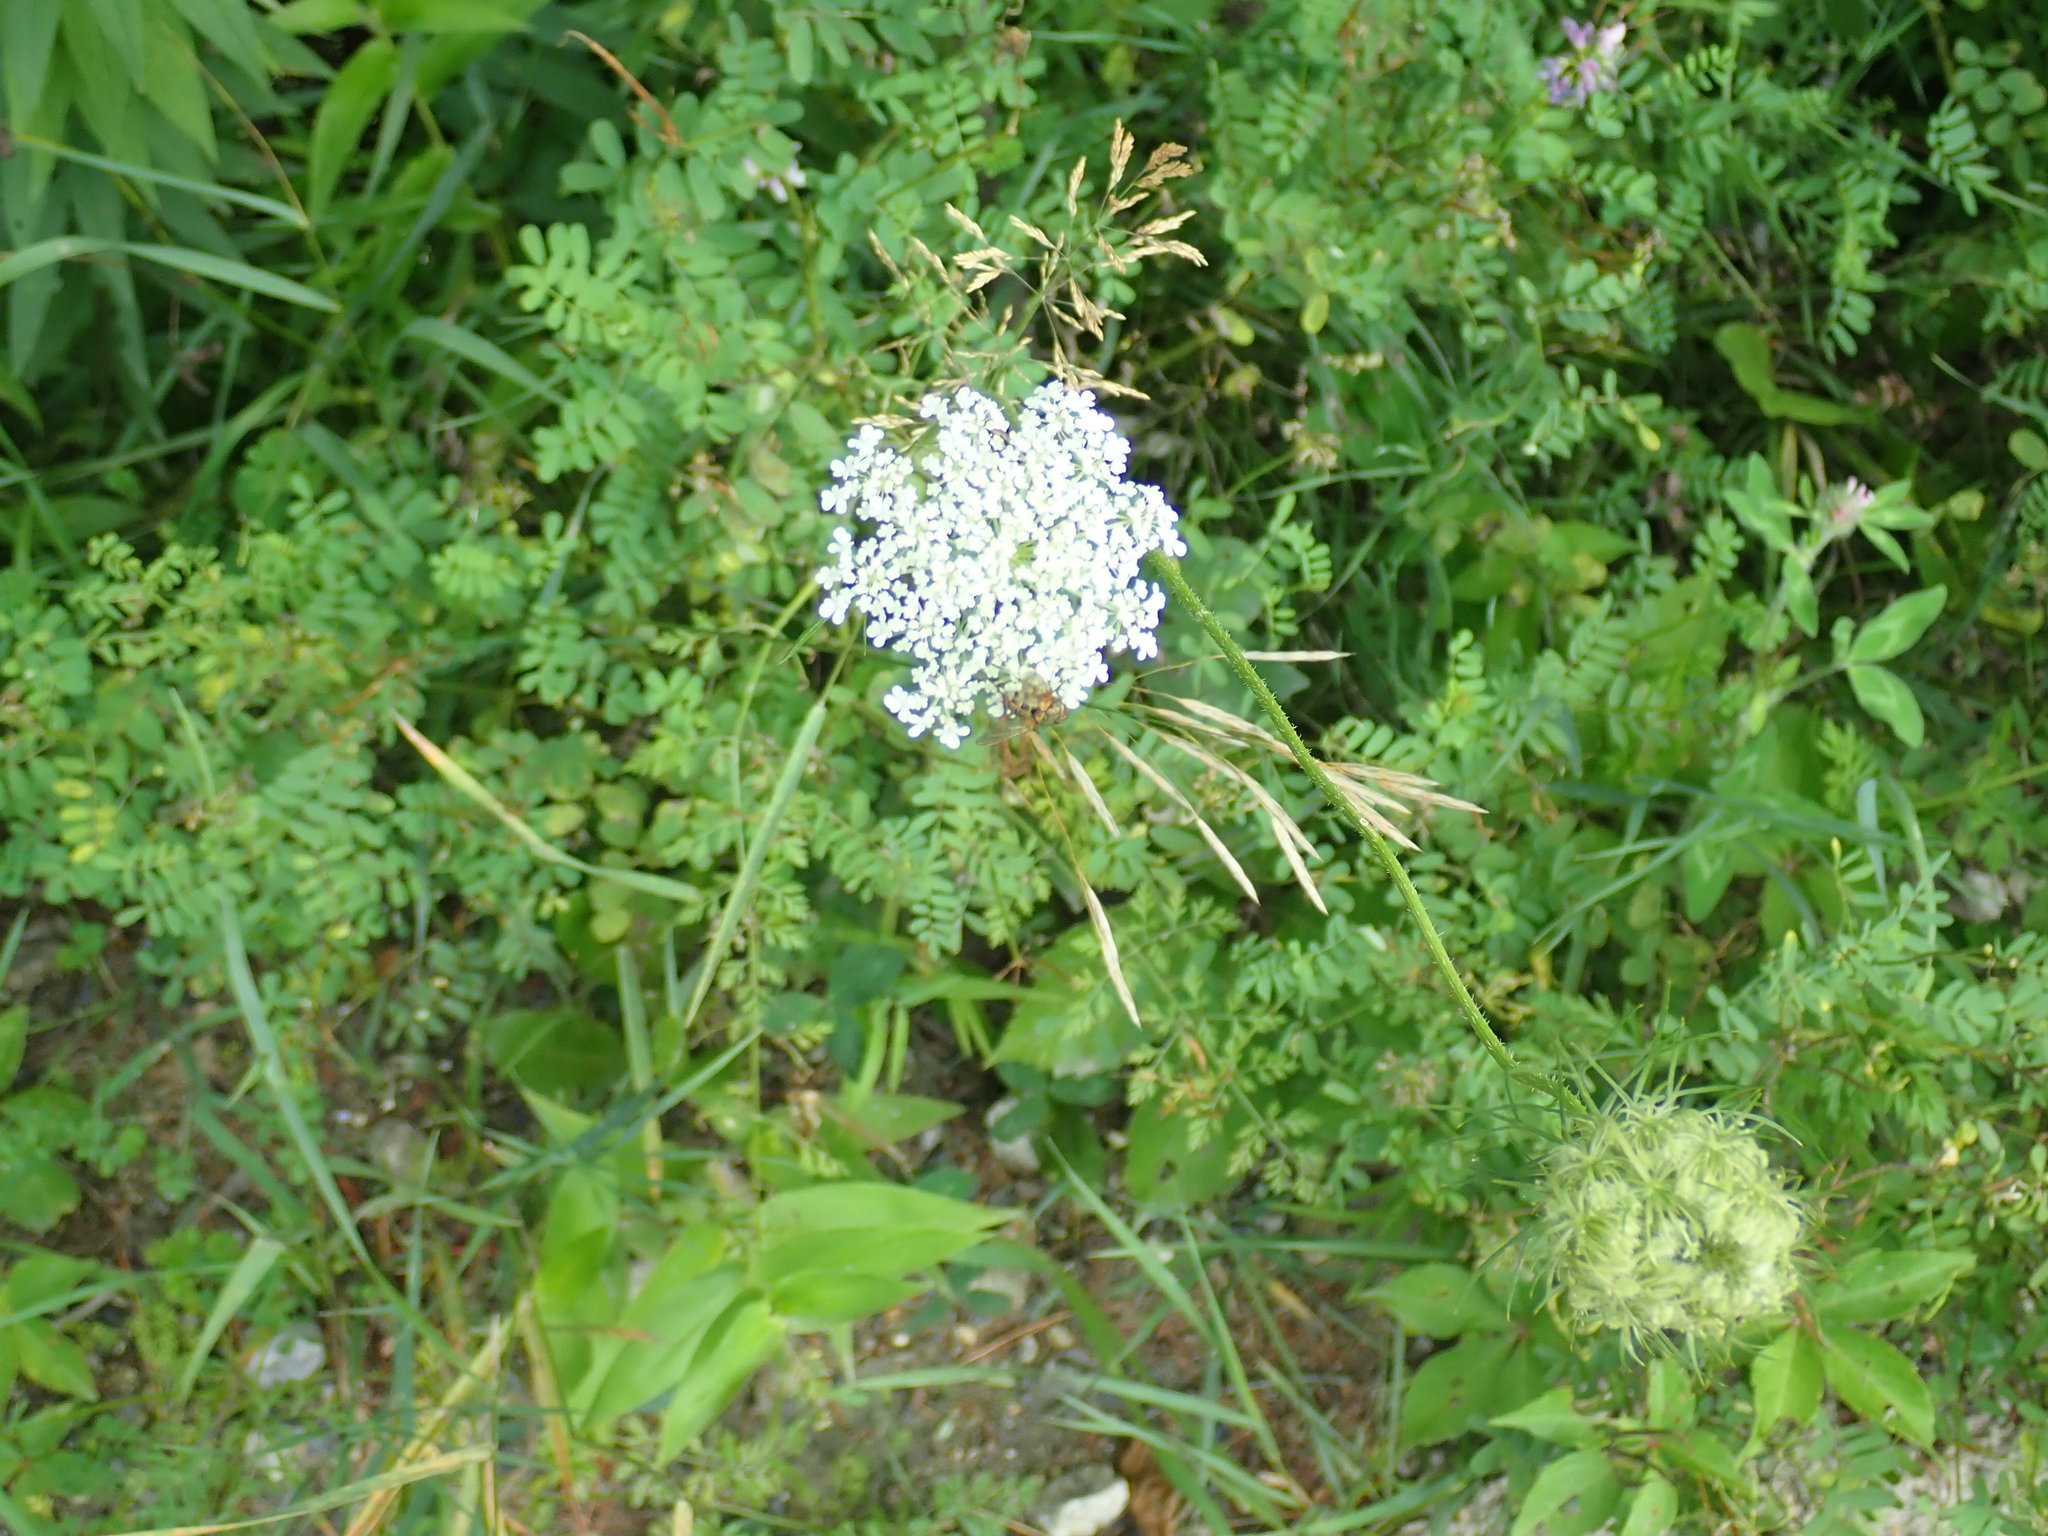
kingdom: Plantae
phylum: Tracheophyta
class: Magnoliopsida
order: Apiales
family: Apiaceae
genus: Daucus
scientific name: Daucus carota
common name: Wild carrot
